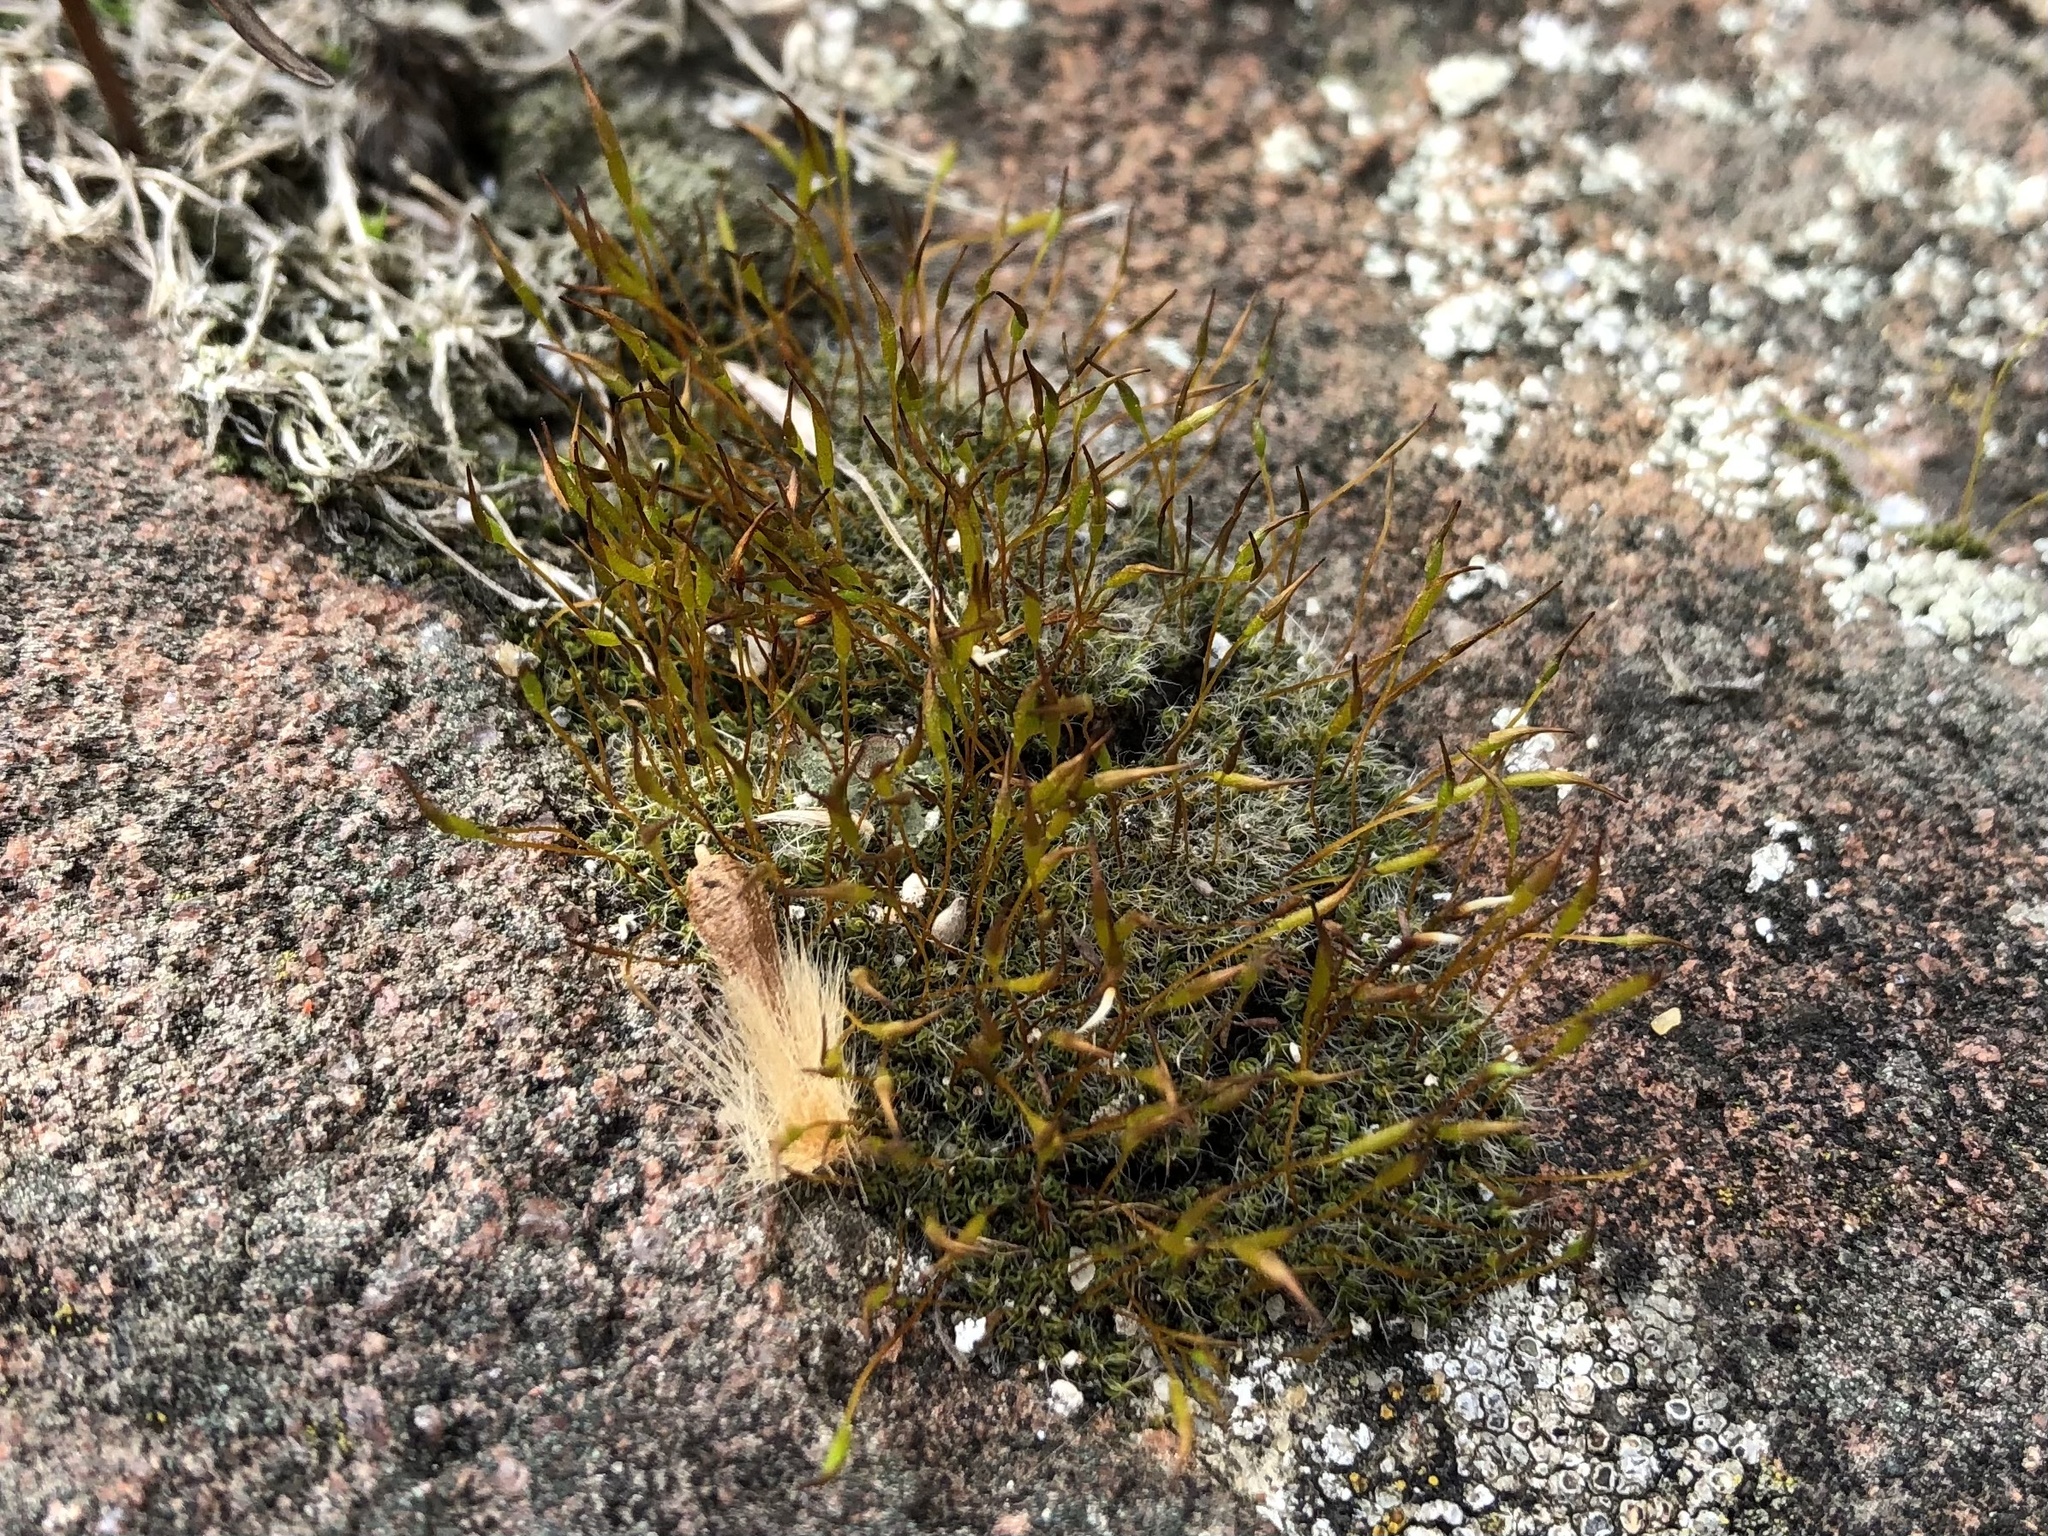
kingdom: Plantae
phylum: Bryophyta
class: Bryopsida
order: Pottiales
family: Pottiaceae
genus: Tortula
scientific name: Tortula muralis
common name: Wall screw-moss
